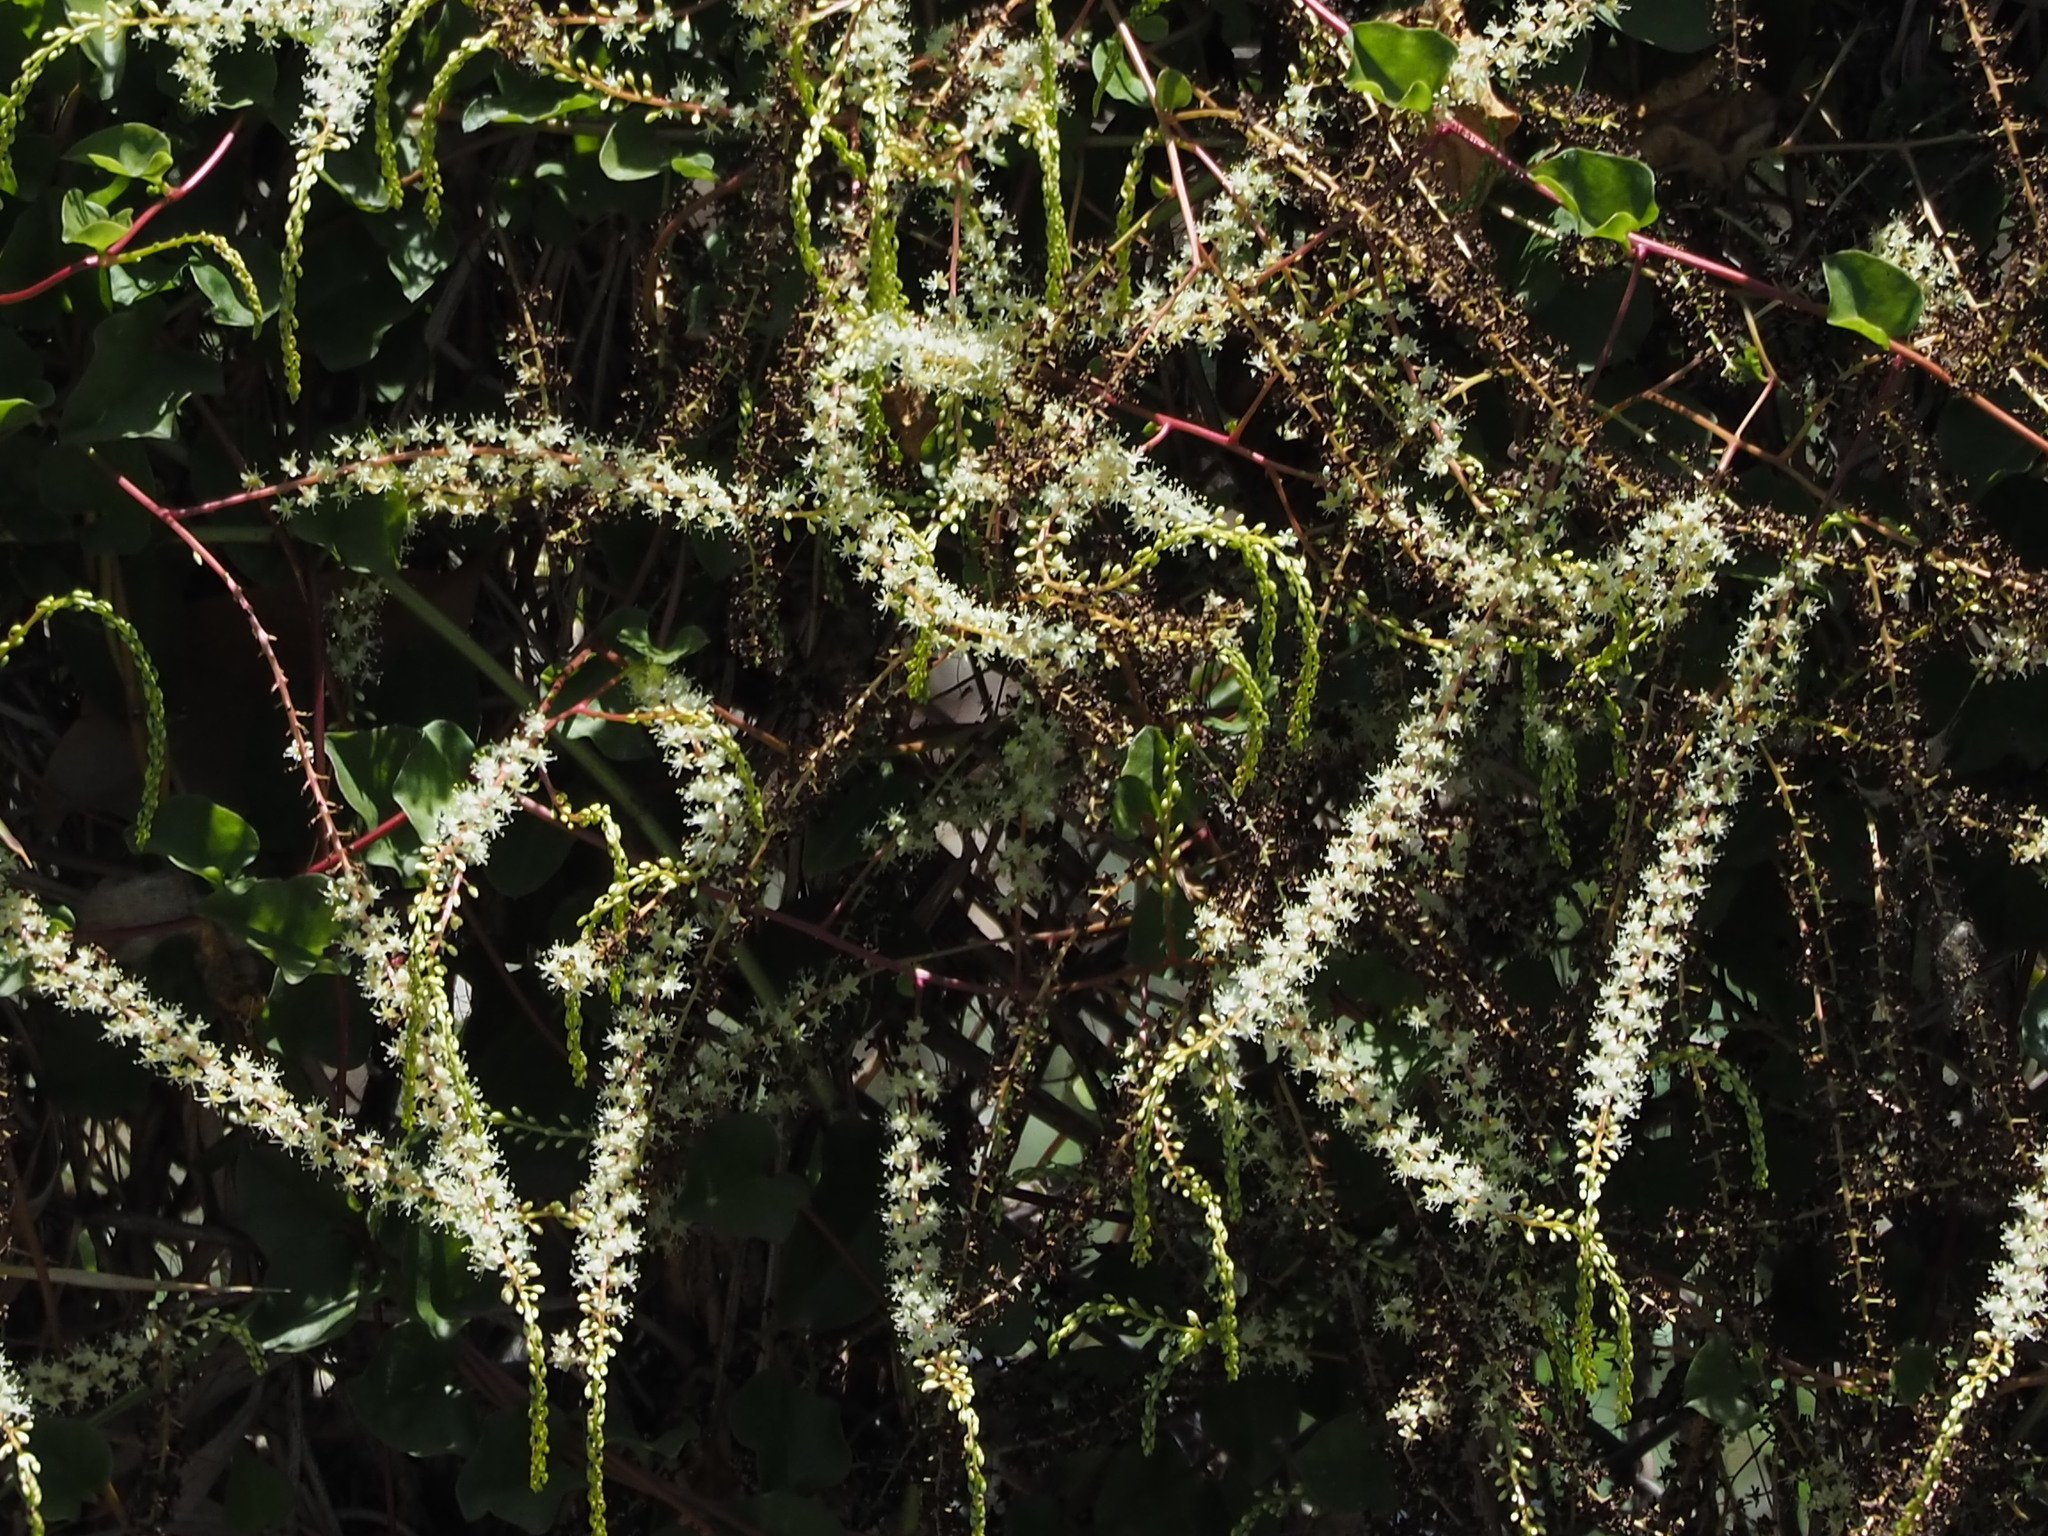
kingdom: Plantae
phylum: Tracheophyta
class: Magnoliopsida
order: Caryophyllales
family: Basellaceae
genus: Anredera
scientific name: Anredera cordifolia
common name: Heartleaf madeiravine
